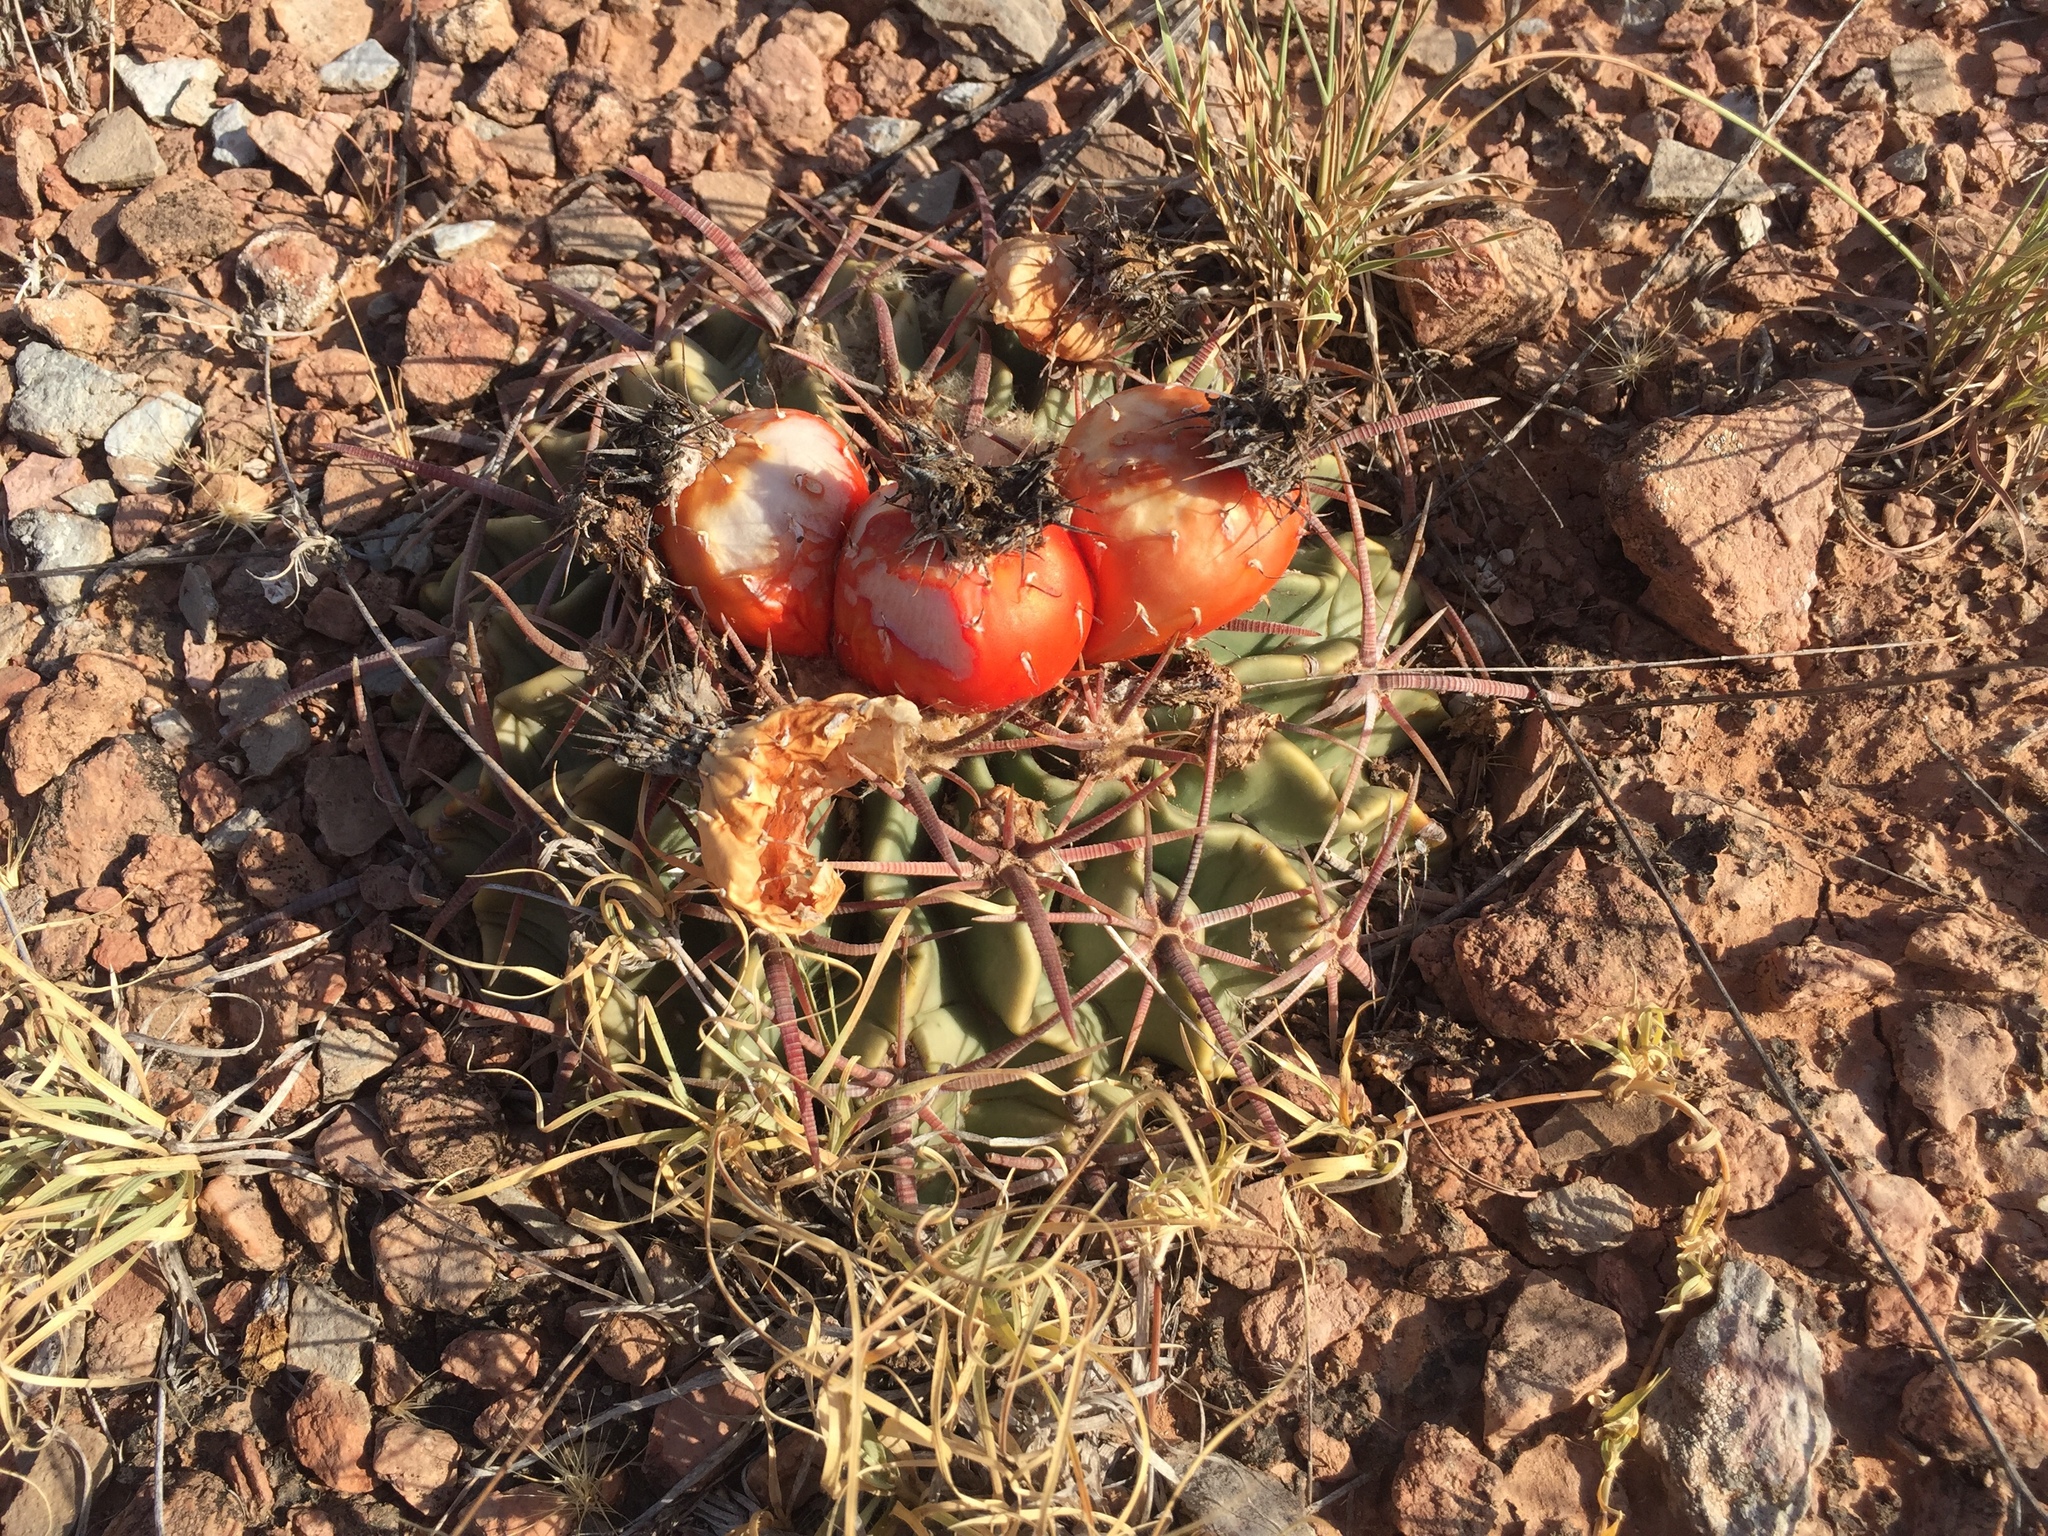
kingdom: Plantae
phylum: Tracheophyta
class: Magnoliopsida
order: Caryophyllales
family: Cactaceae
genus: Echinocactus
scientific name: Echinocactus texensis
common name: Devil's pincushion
